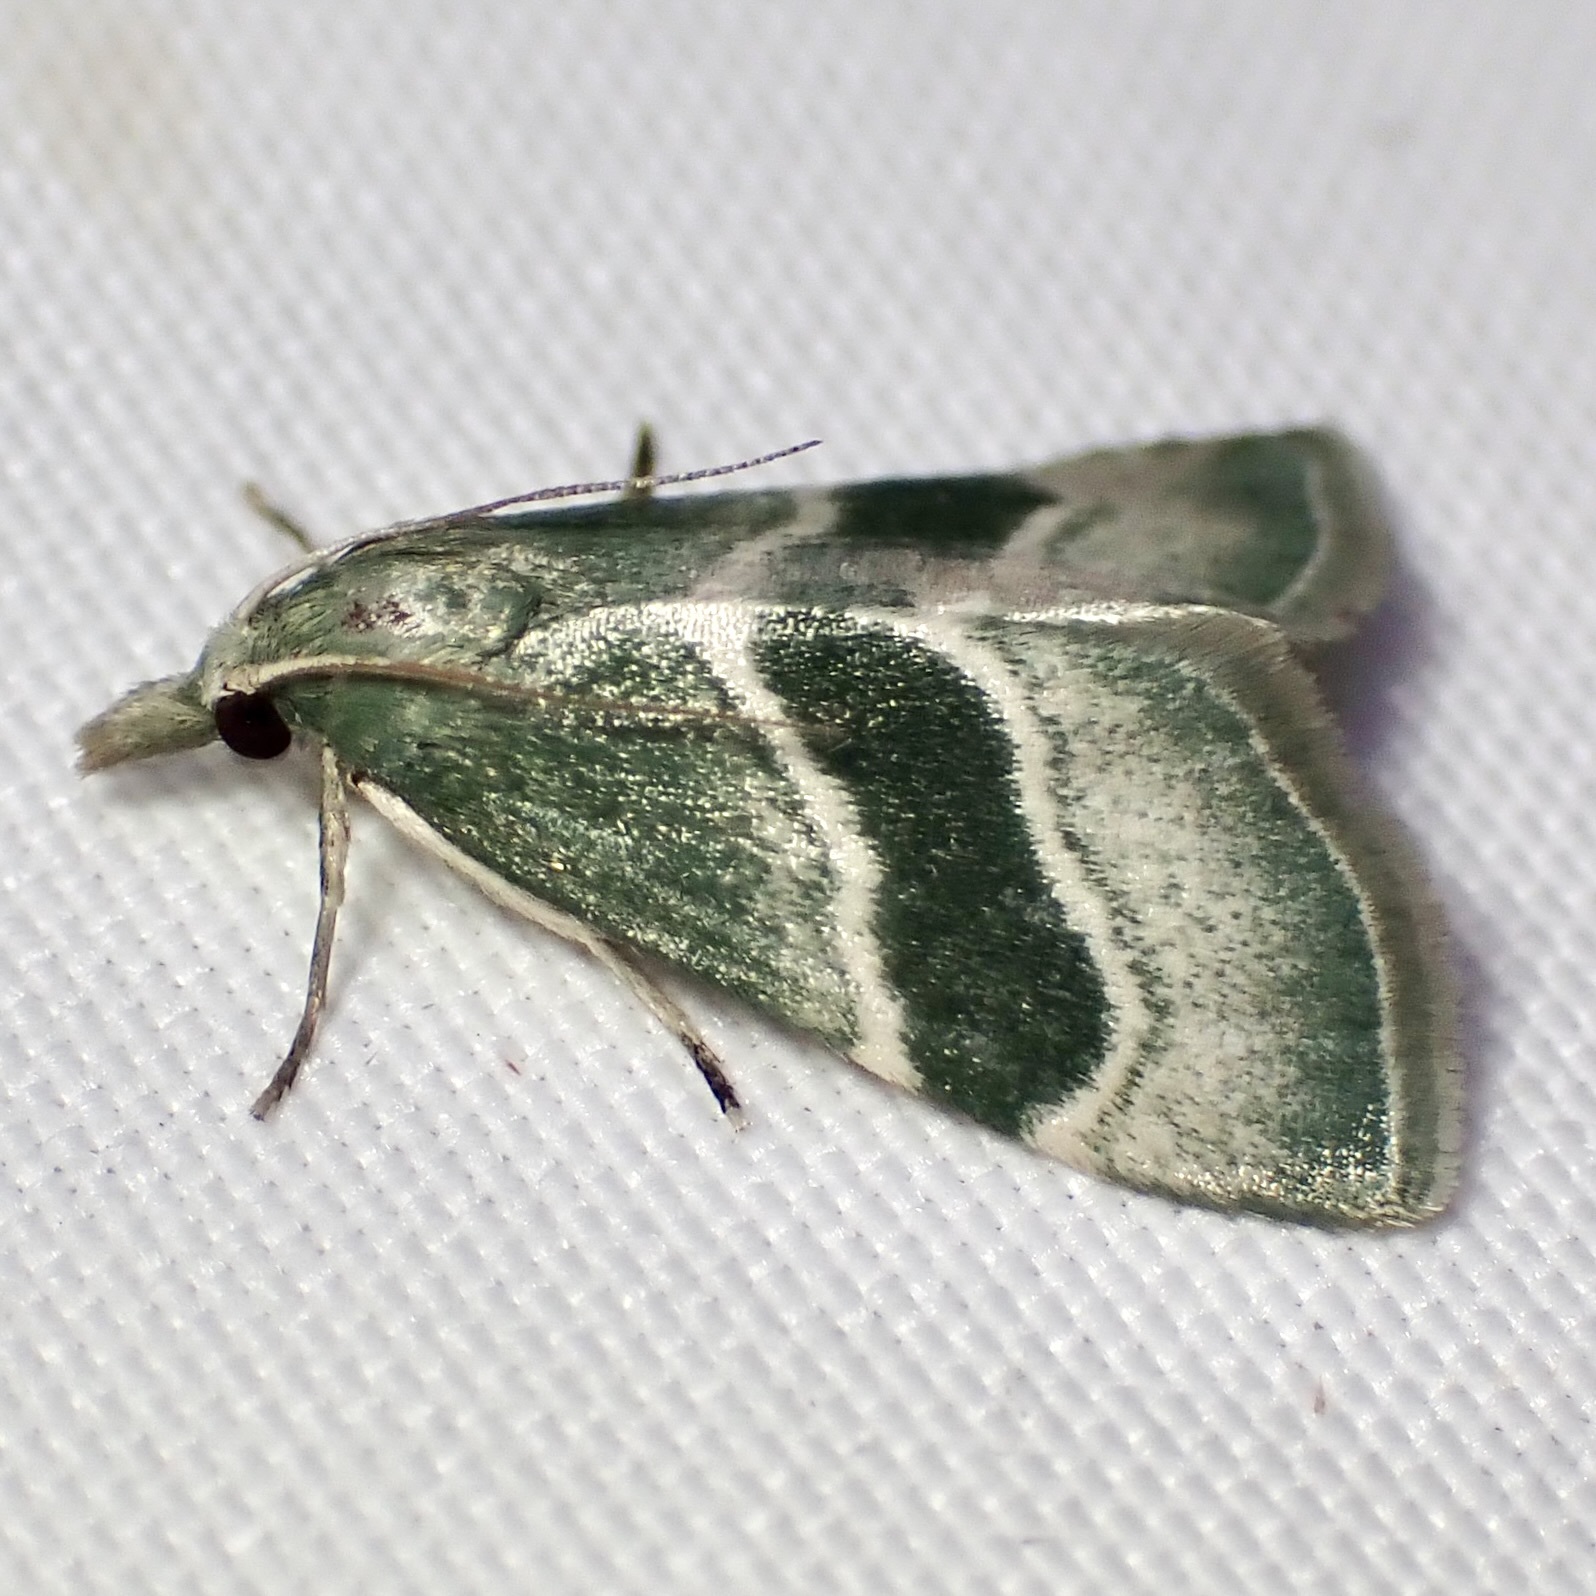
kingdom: Animalia
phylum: Arthropoda
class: Insecta
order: Lepidoptera
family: Pyralidae
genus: Anemosella
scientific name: Anemosella viridalis
